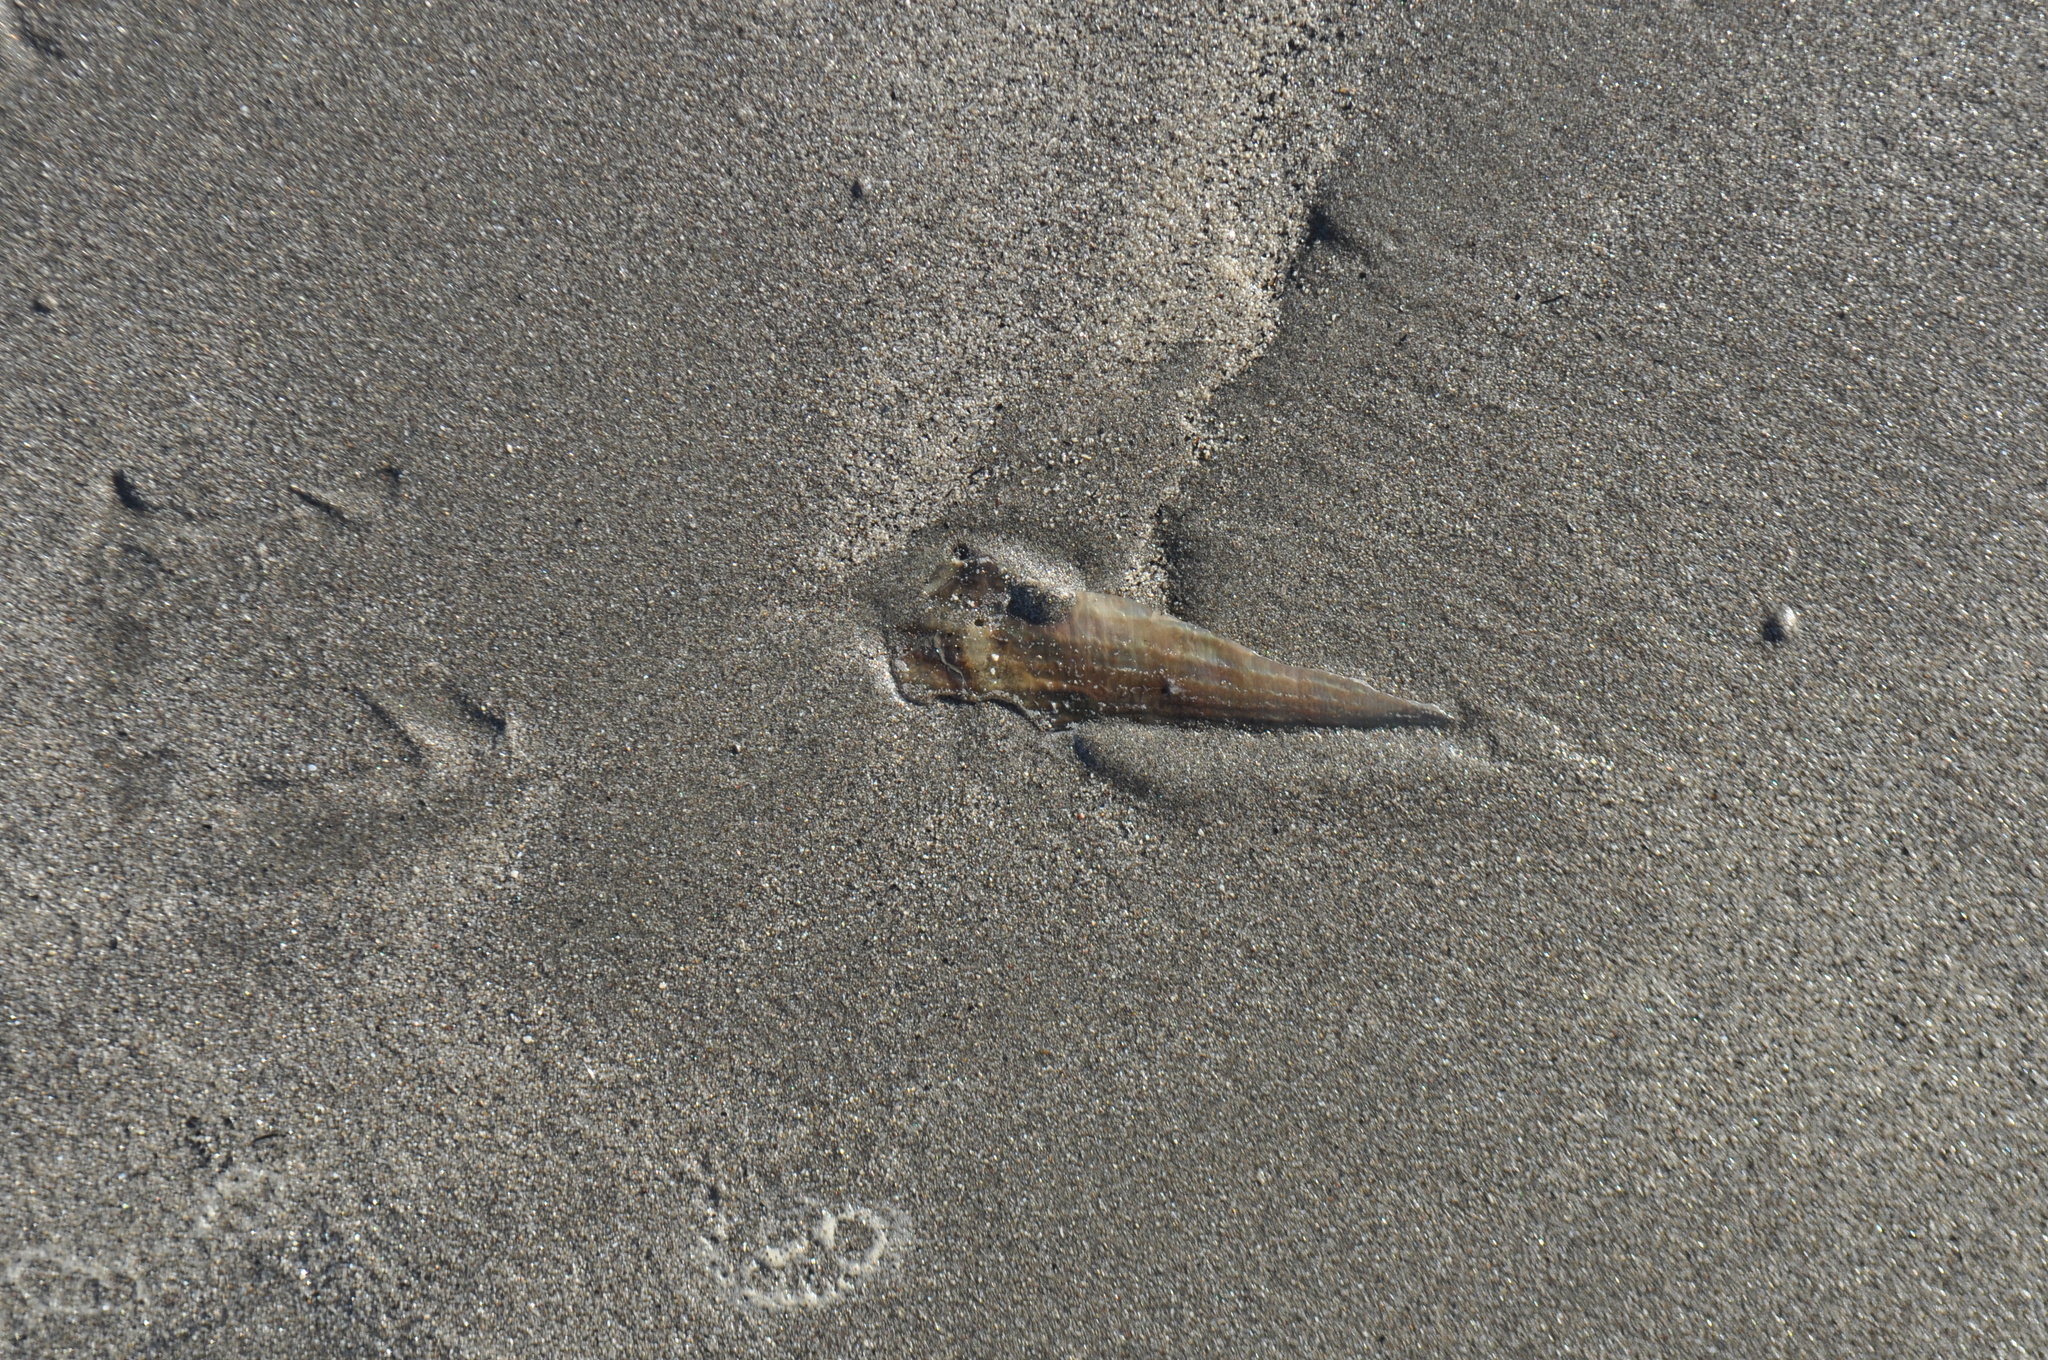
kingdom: Animalia
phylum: Mollusca
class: Bivalvia
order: Ostreida
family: Pinnidae
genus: Atrina
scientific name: Atrina zelandica
